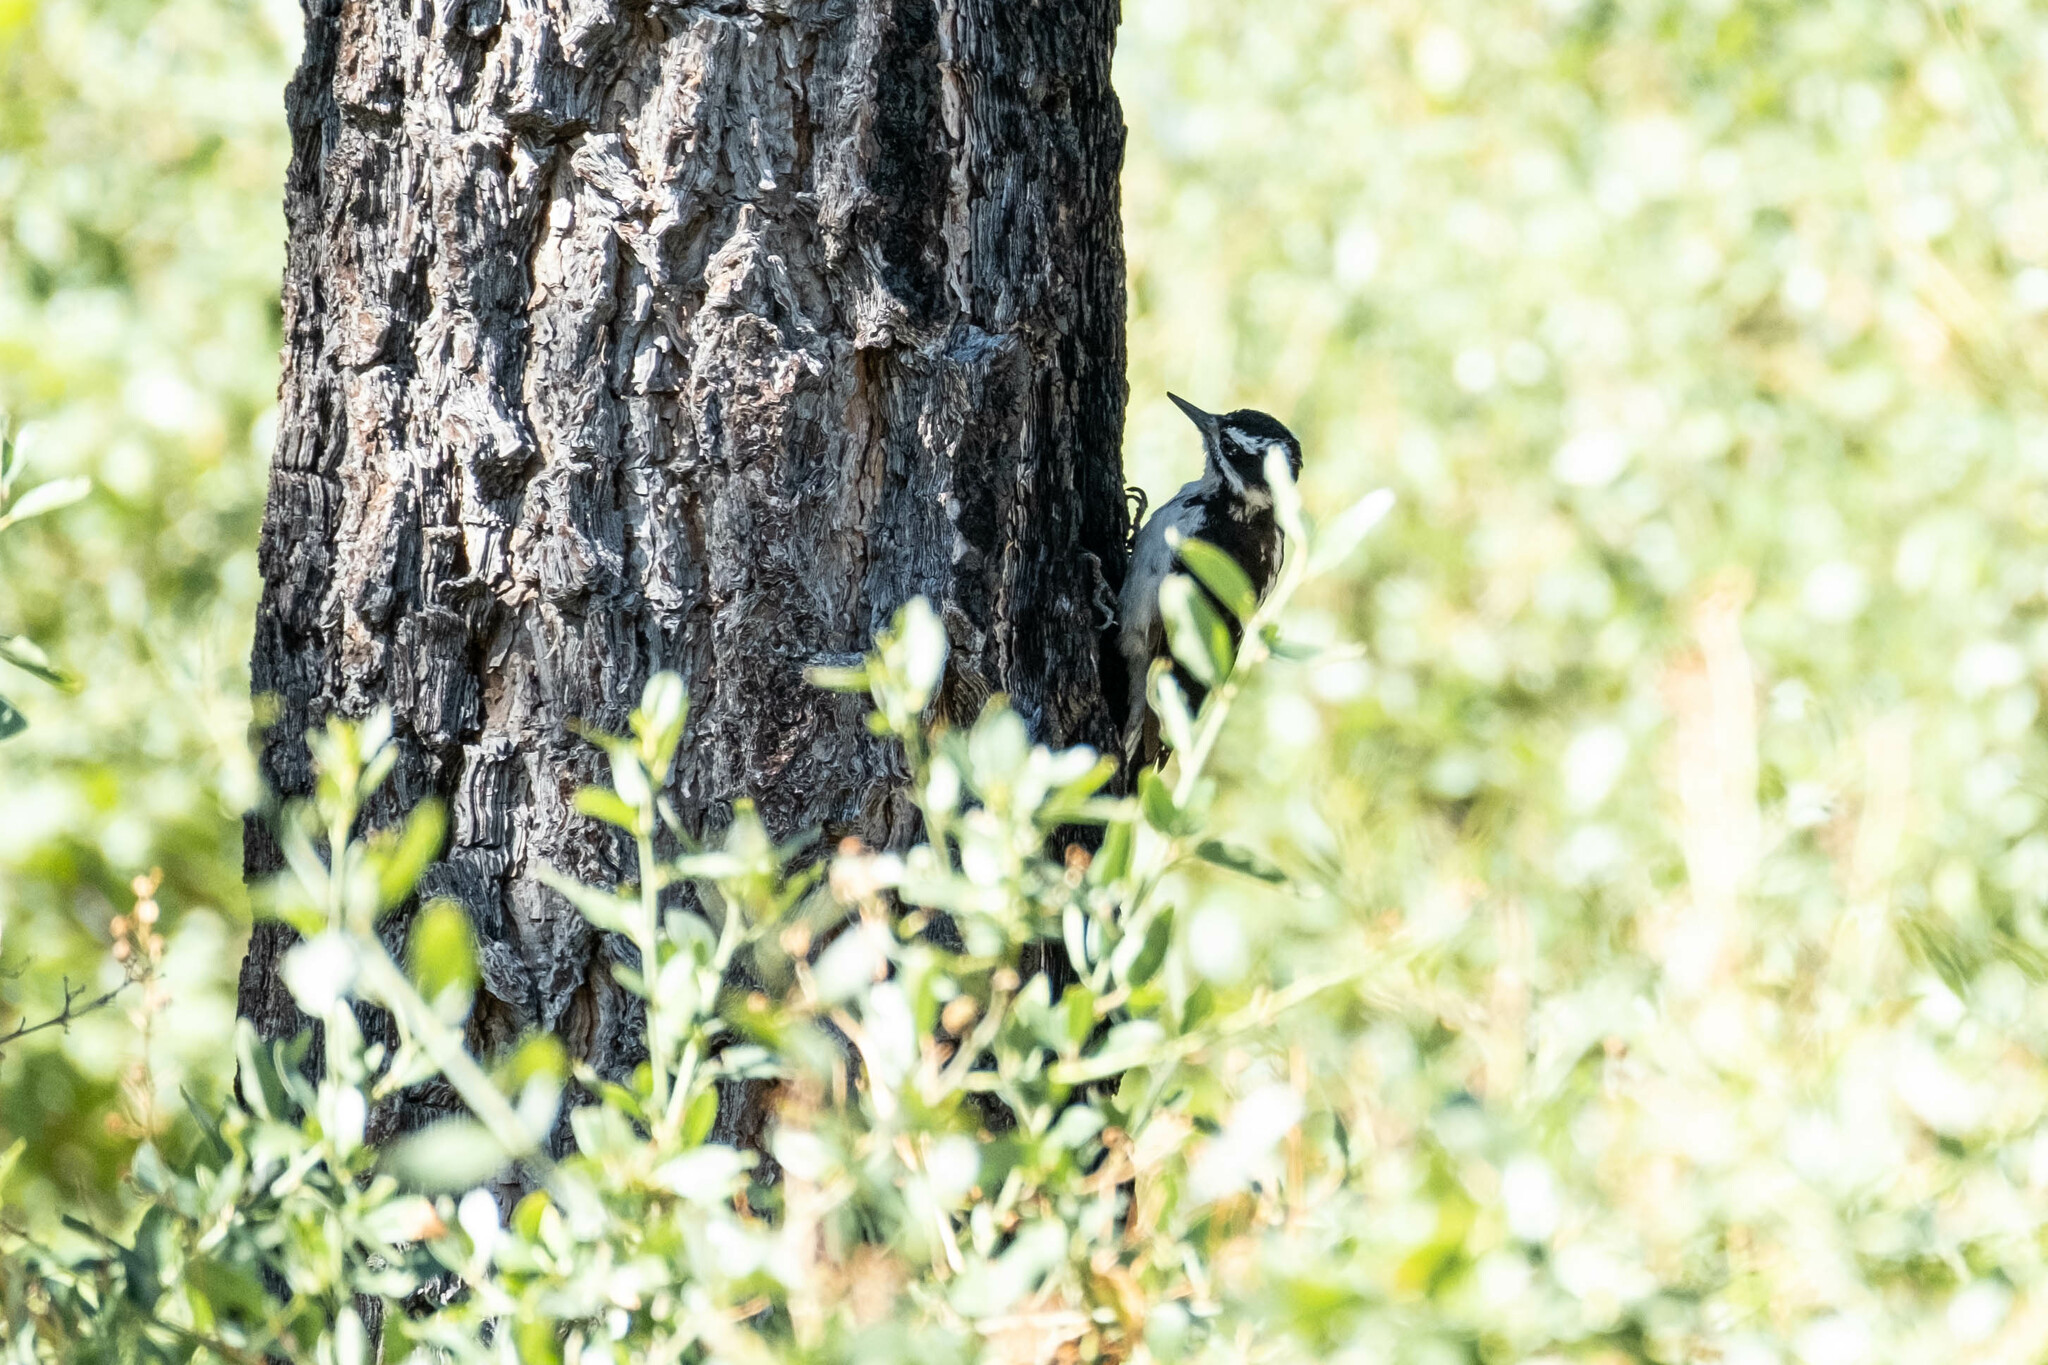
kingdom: Animalia
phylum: Chordata
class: Aves
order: Piciformes
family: Picidae
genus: Leuconotopicus
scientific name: Leuconotopicus villosus
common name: Hairy woodpecker
